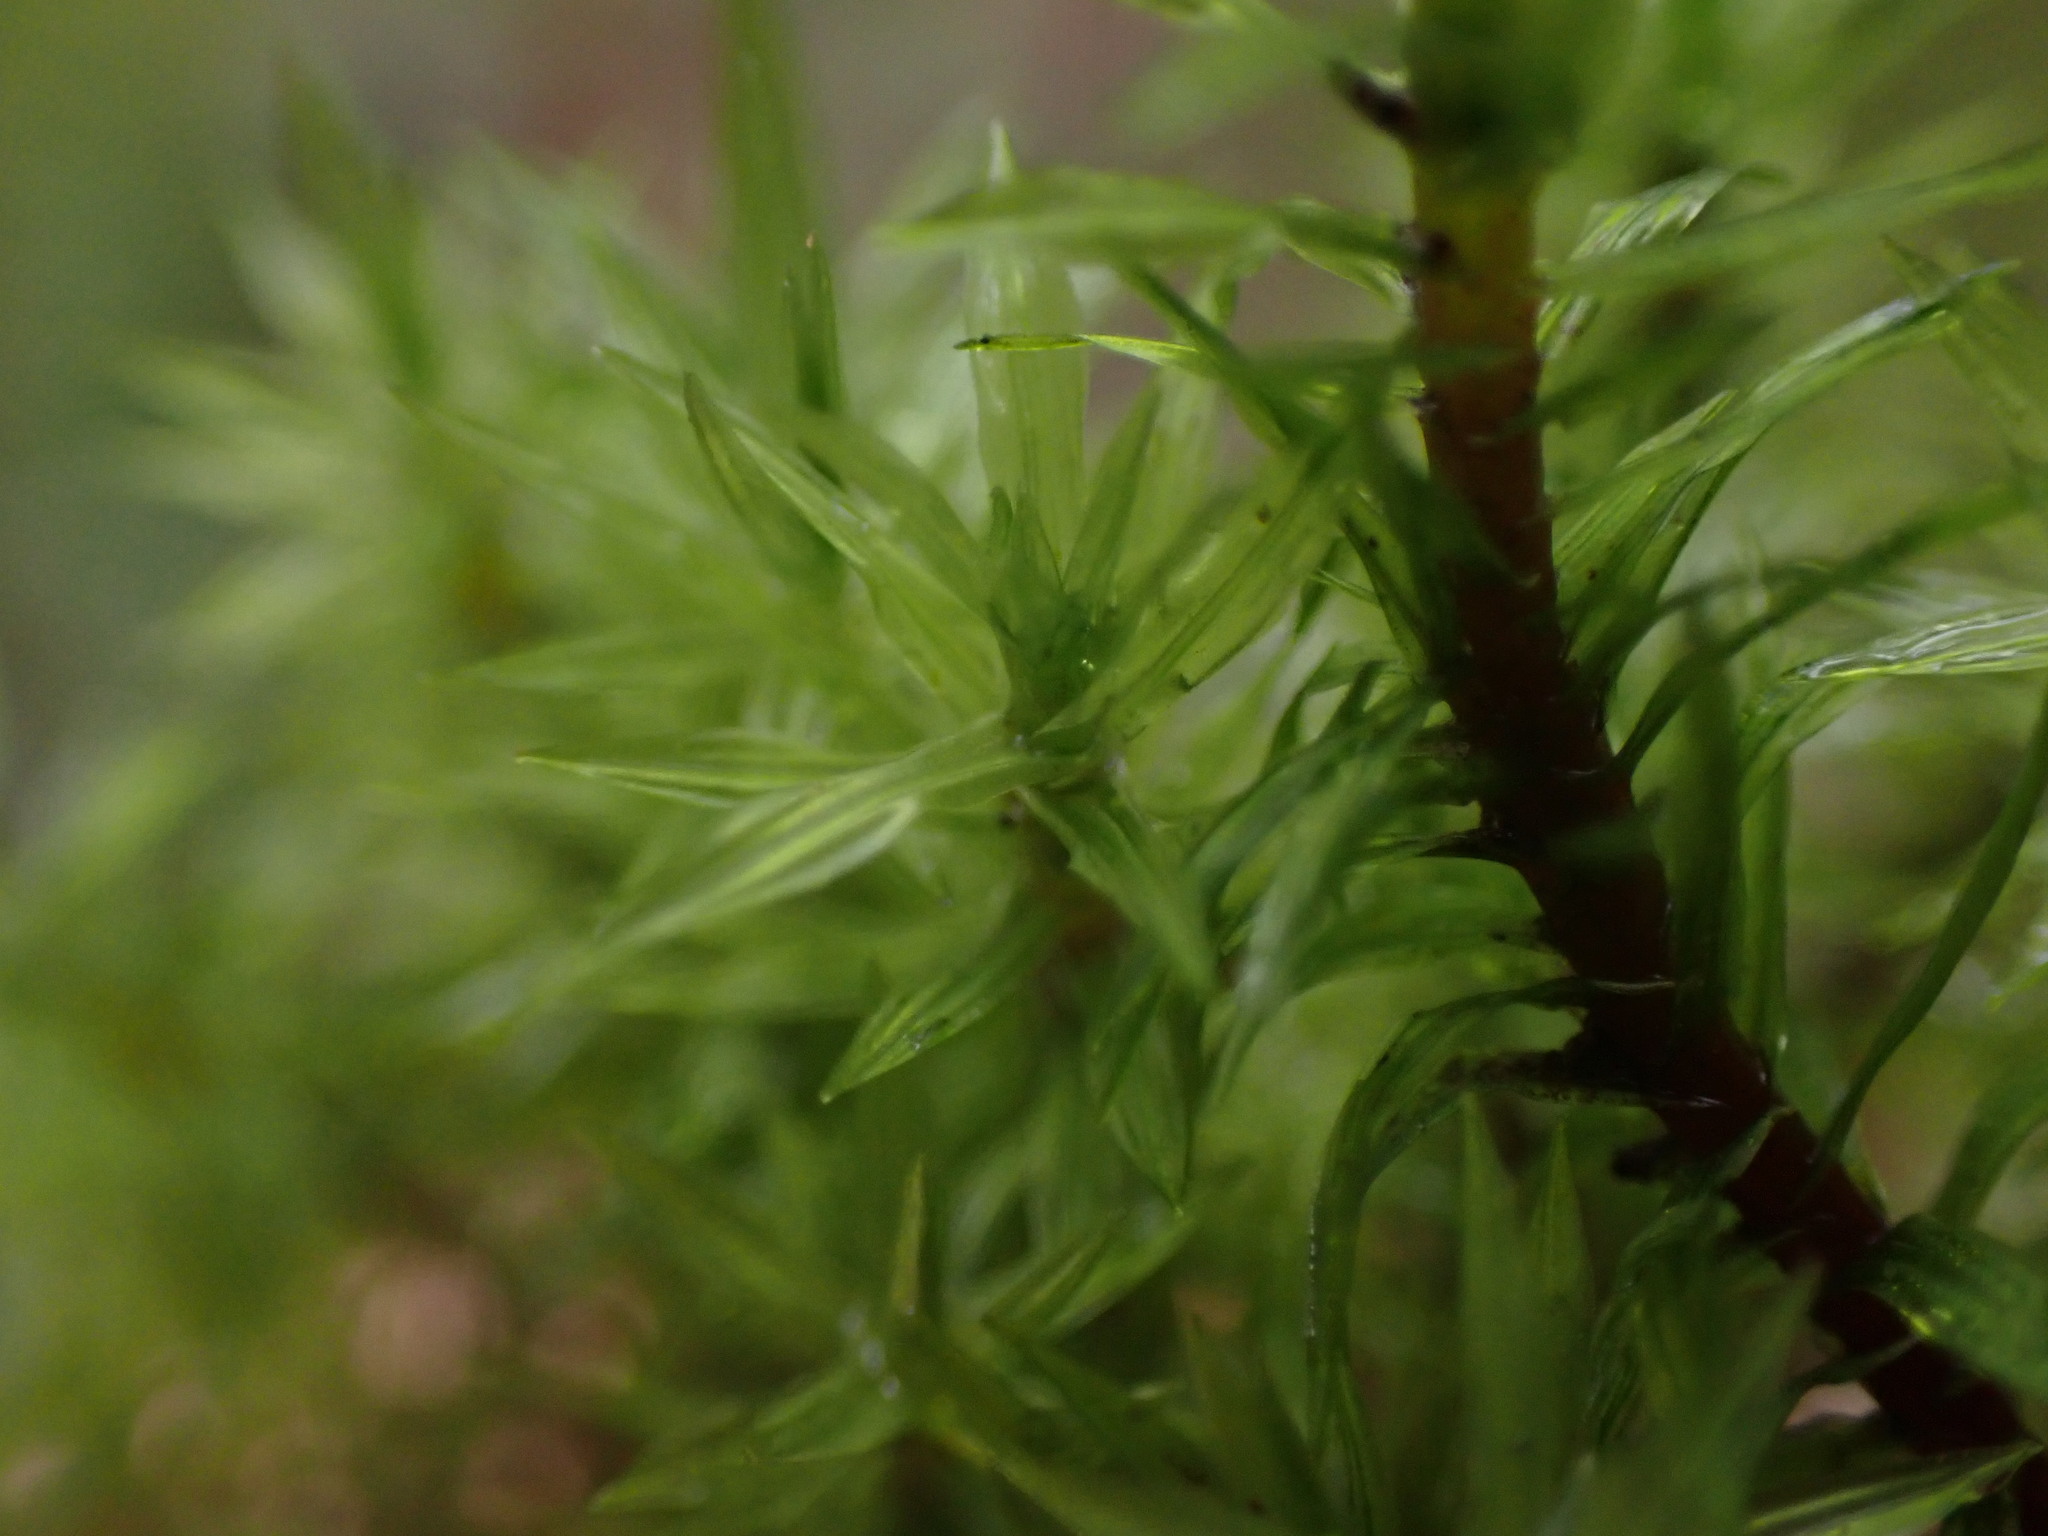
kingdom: Plantae
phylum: Bryophyta
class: Bryopsida
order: Timmiales
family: Timmiaceae
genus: Timmia
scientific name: Timmia austriaca
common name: Austrian timmia
